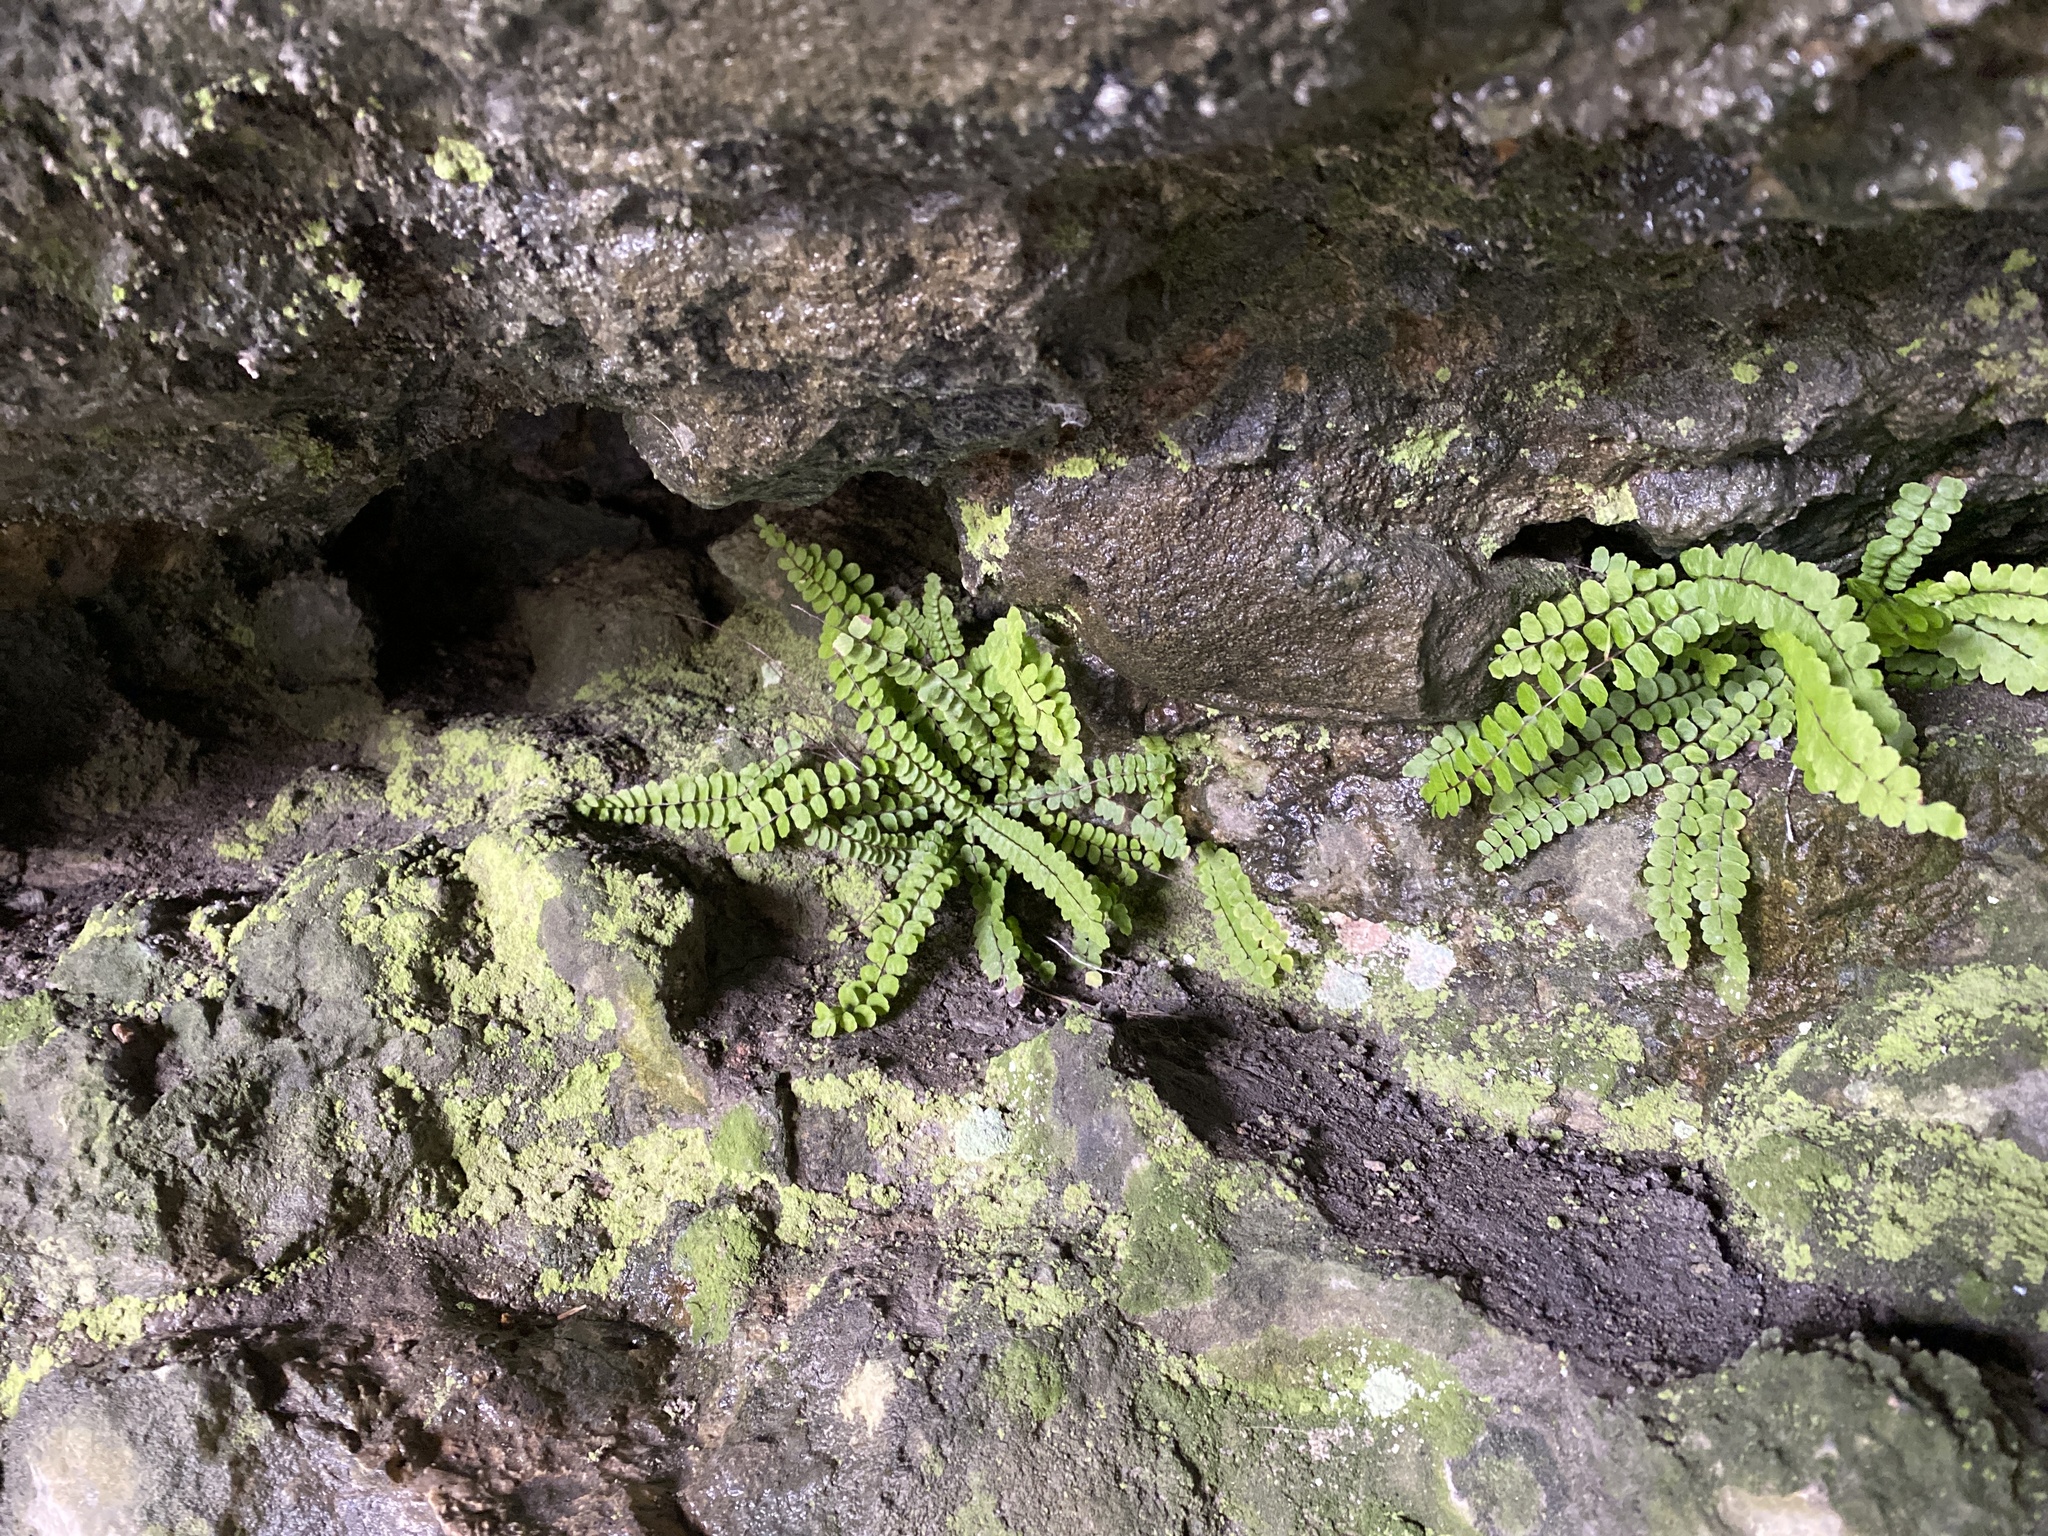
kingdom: Plantae
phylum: Tracheophyta
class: Polypodiopsida
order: Polypodiales
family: Aspleniaceae
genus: Asplenium
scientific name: Asplenium trichomanes
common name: Maidenhair spleenwort
